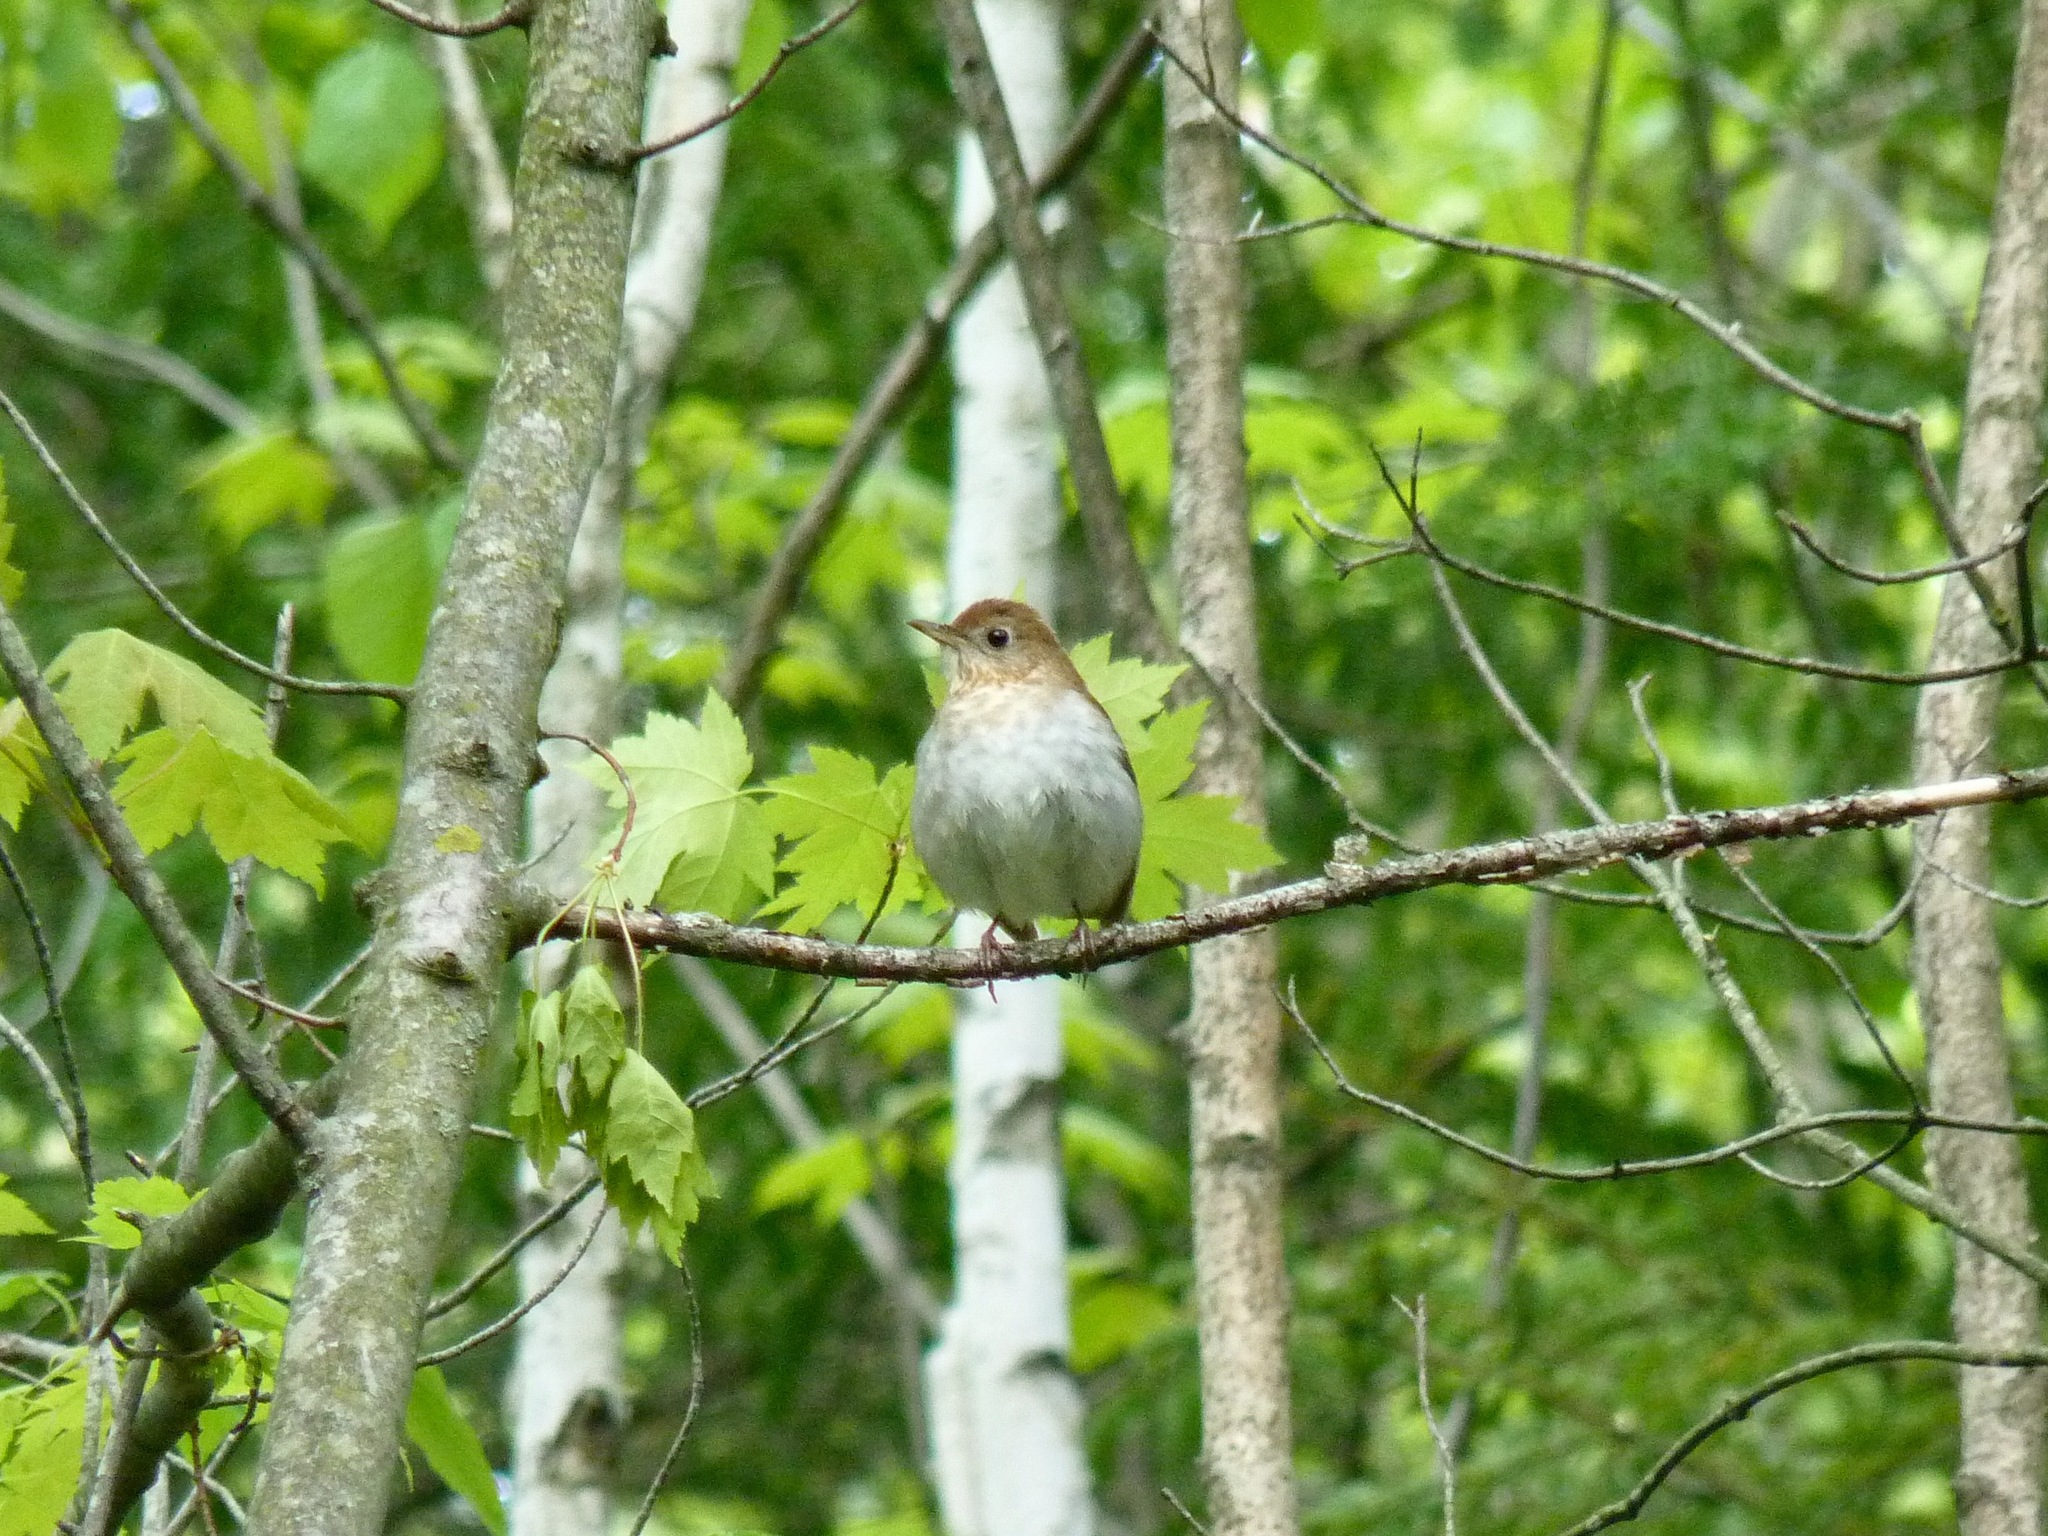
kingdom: Animalia
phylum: Chordata
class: Aves
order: Passeriformes
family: Turdidae
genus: Catharus
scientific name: Catharus fuscescens
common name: Veery
